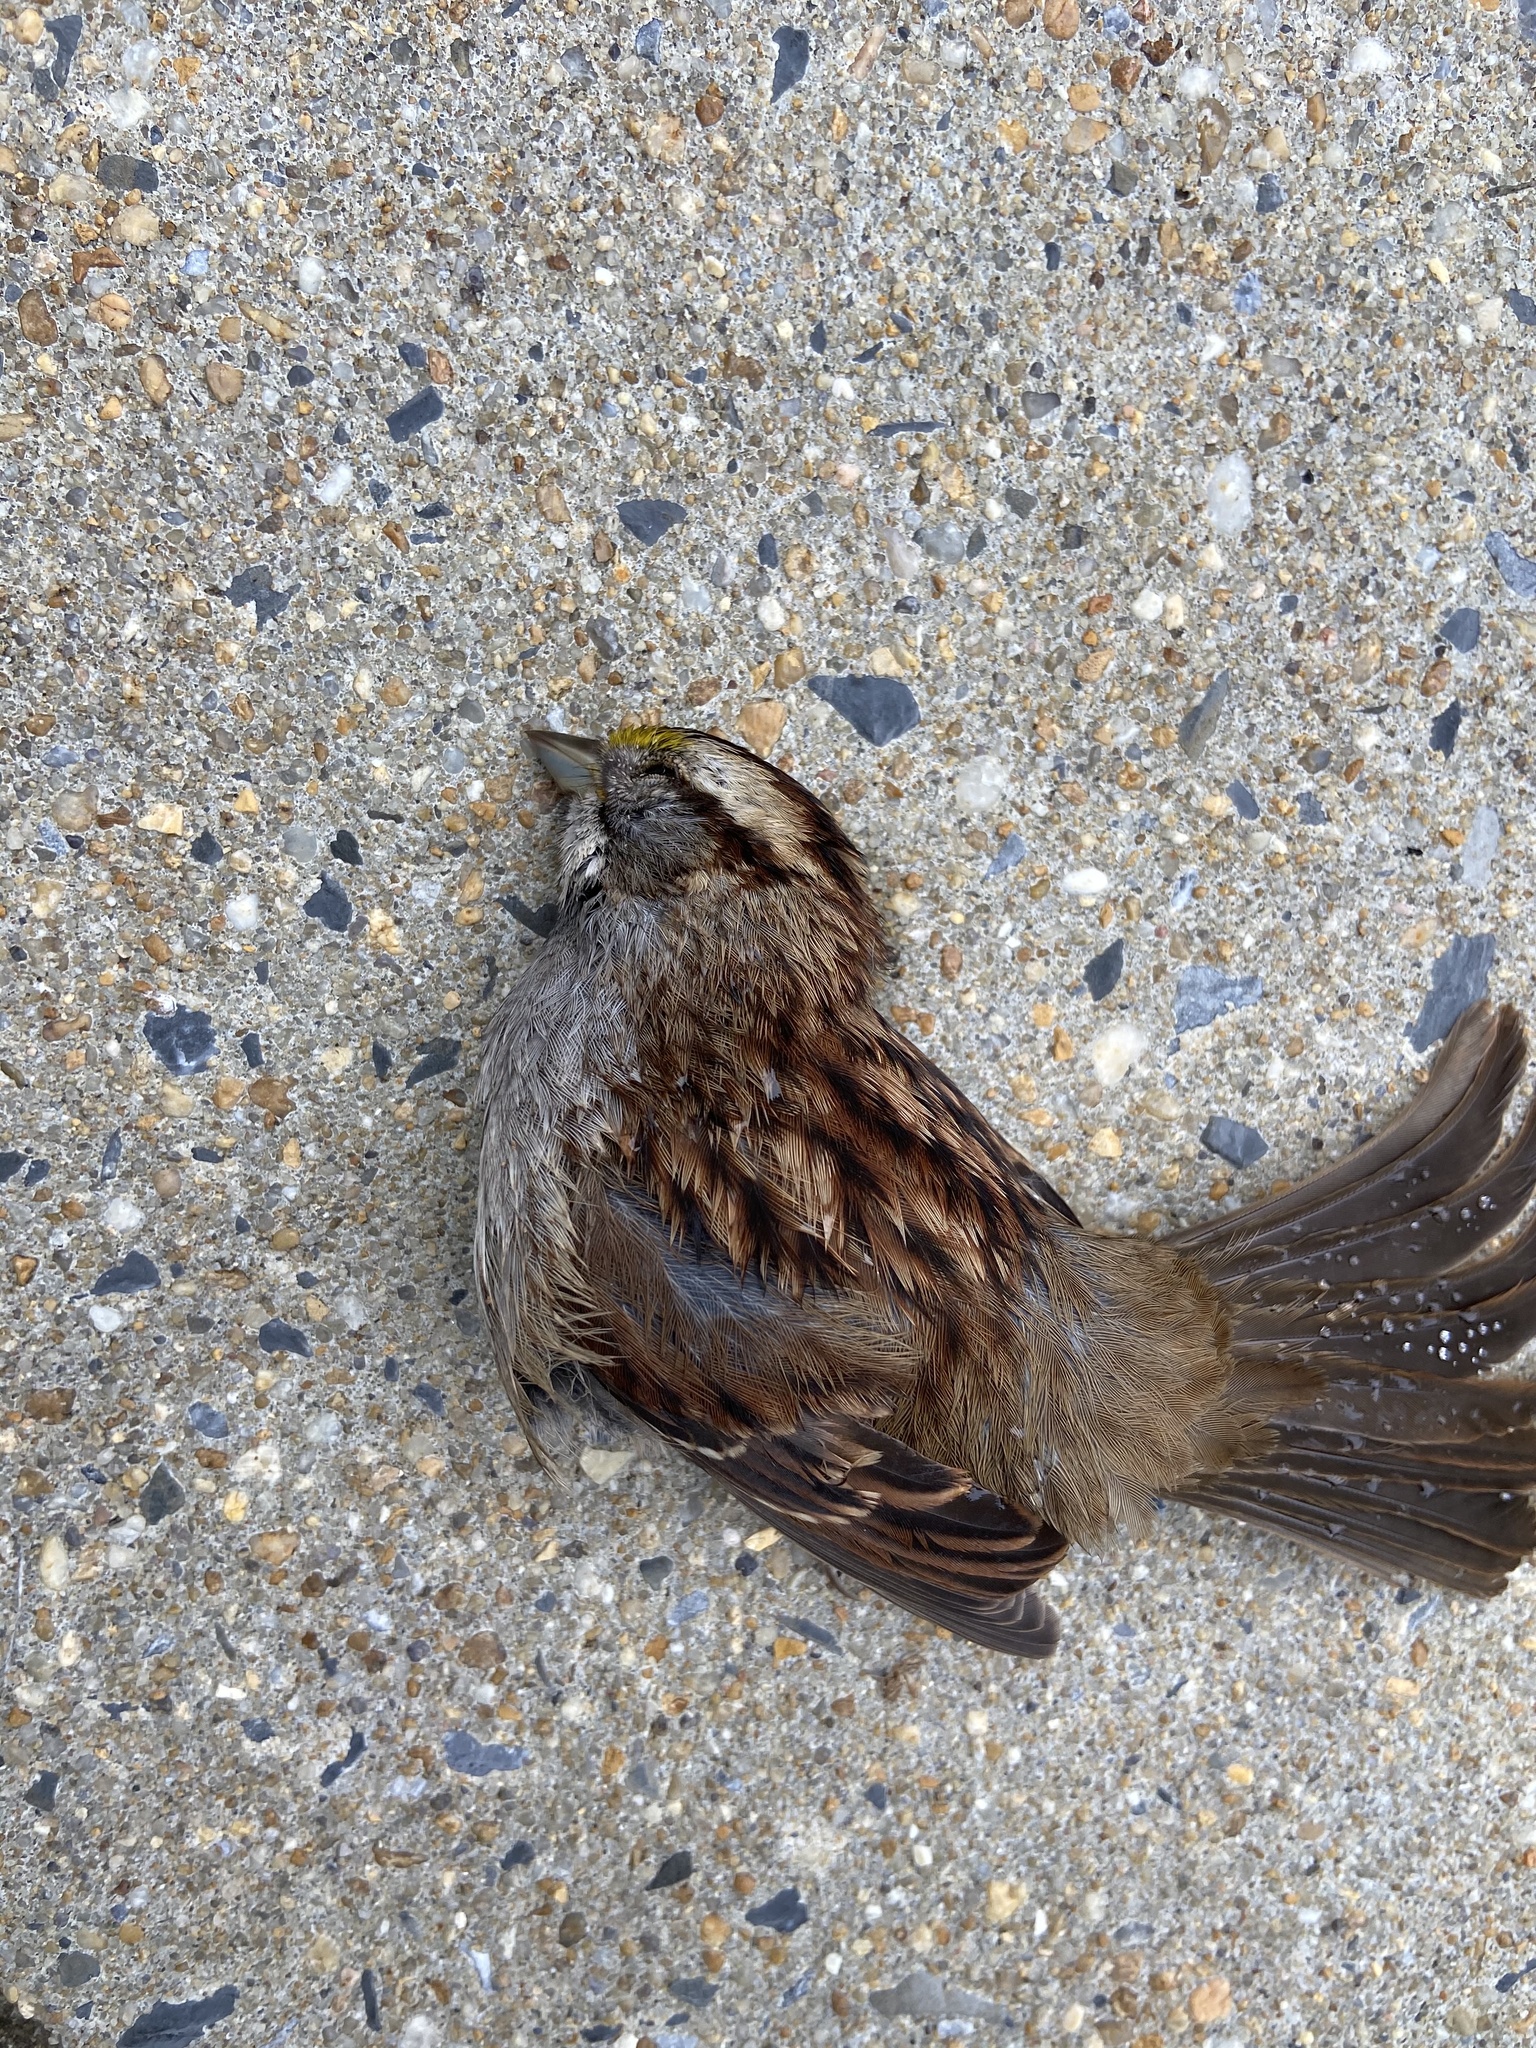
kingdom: Animalia
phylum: Chordata
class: Aves
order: Passeriformes
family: Passerellidae
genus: Zonotrichia
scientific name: Zonotrichia albicollis
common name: White-throated sparrow
